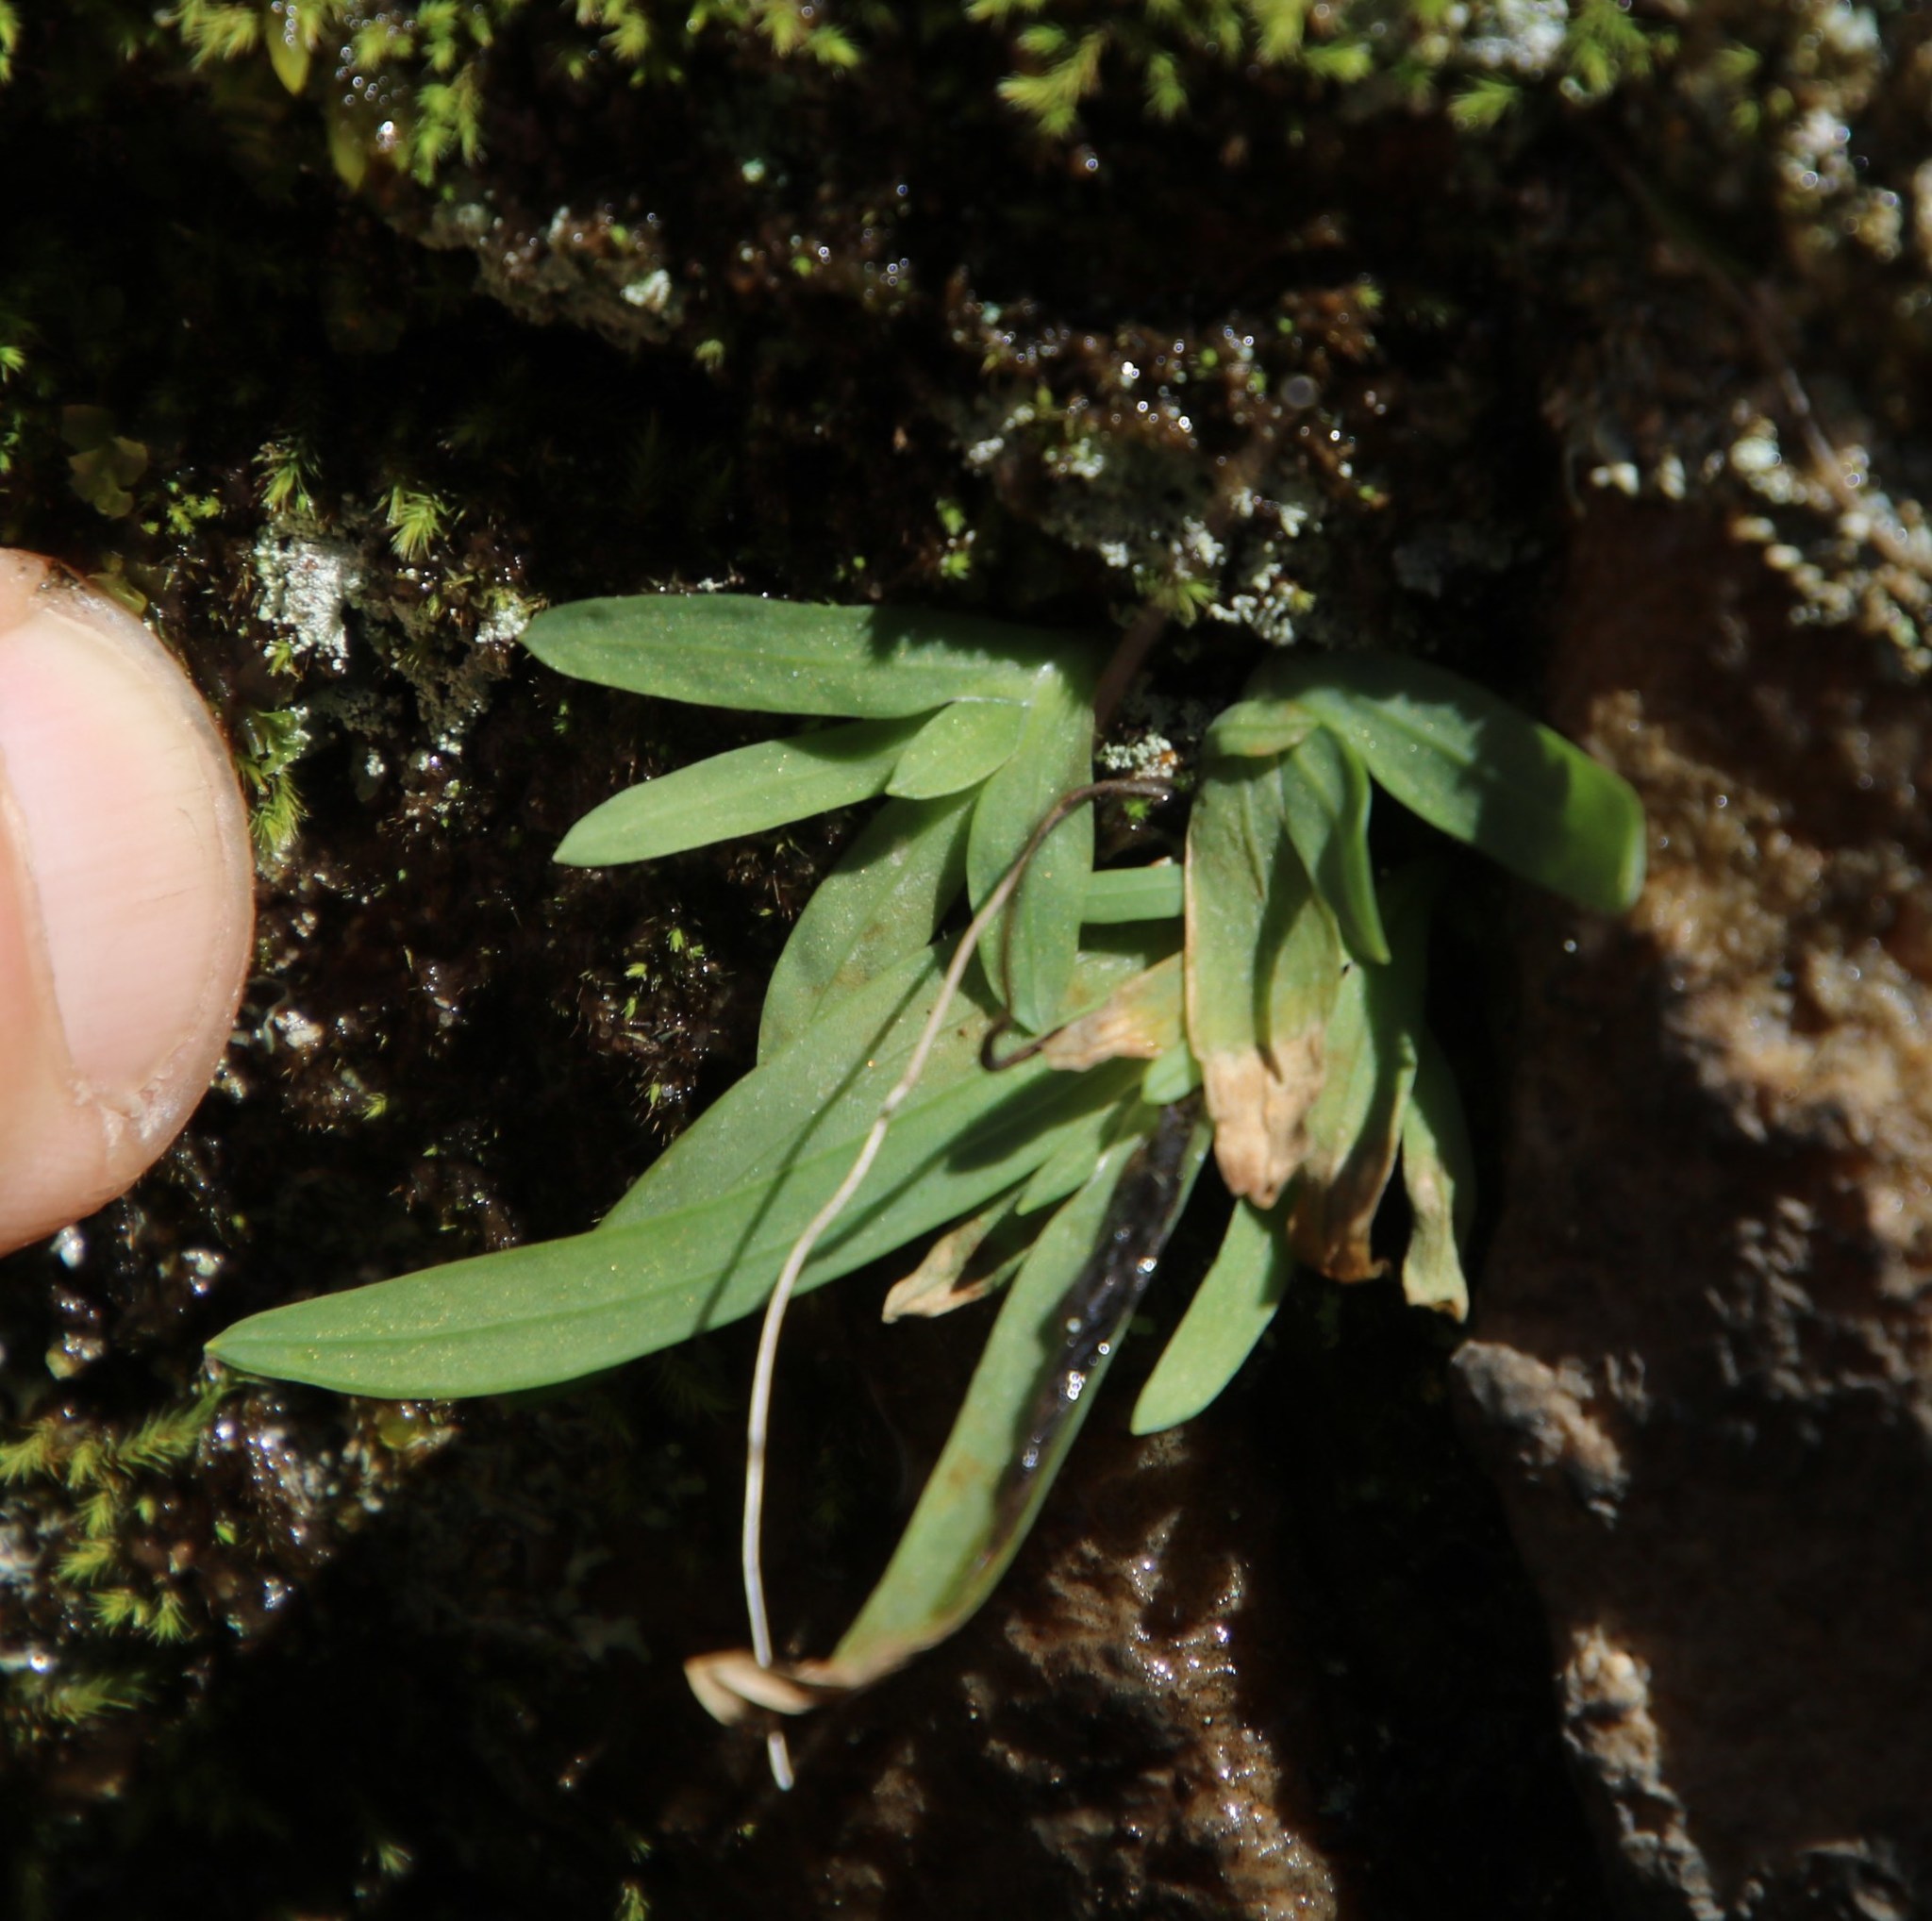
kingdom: Plantae
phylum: Tracheophyta
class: Liliopsida
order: Asparagales
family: Iridaceae
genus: Geissorhiza
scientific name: Geissorhiza bolusii
